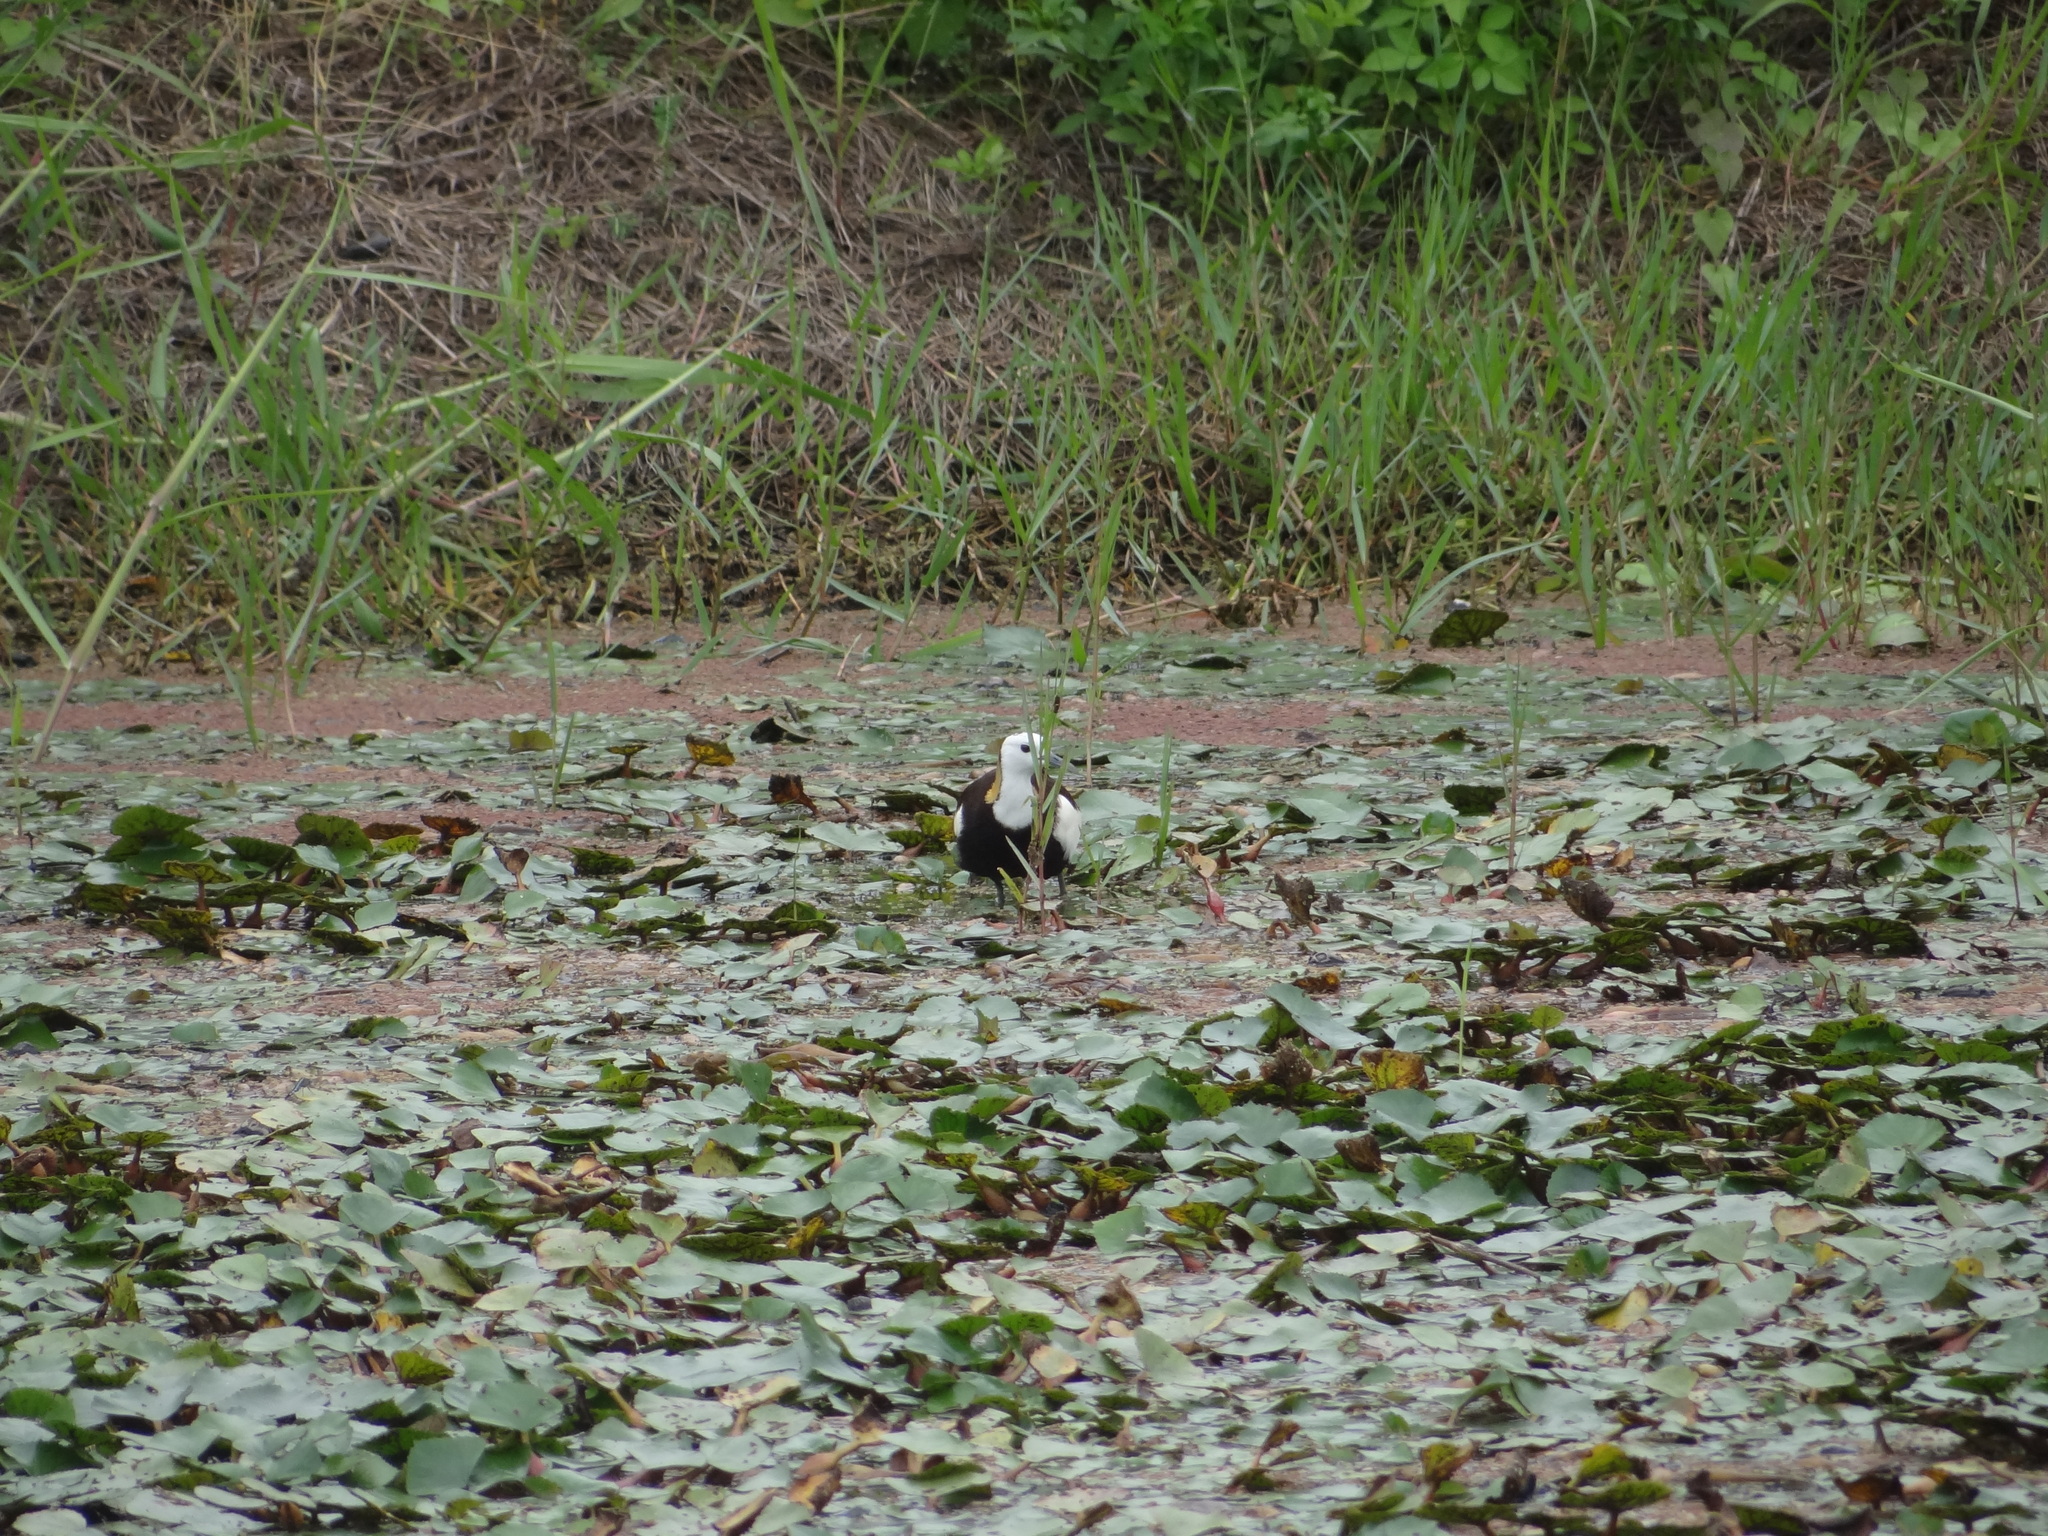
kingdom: Animalia
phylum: Chordata
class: Aves
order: Charadriiformes
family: Jacanidae
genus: Hydrophasianus
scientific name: Hydrophasianus chirurgus
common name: Pheasant-tailed jacana
